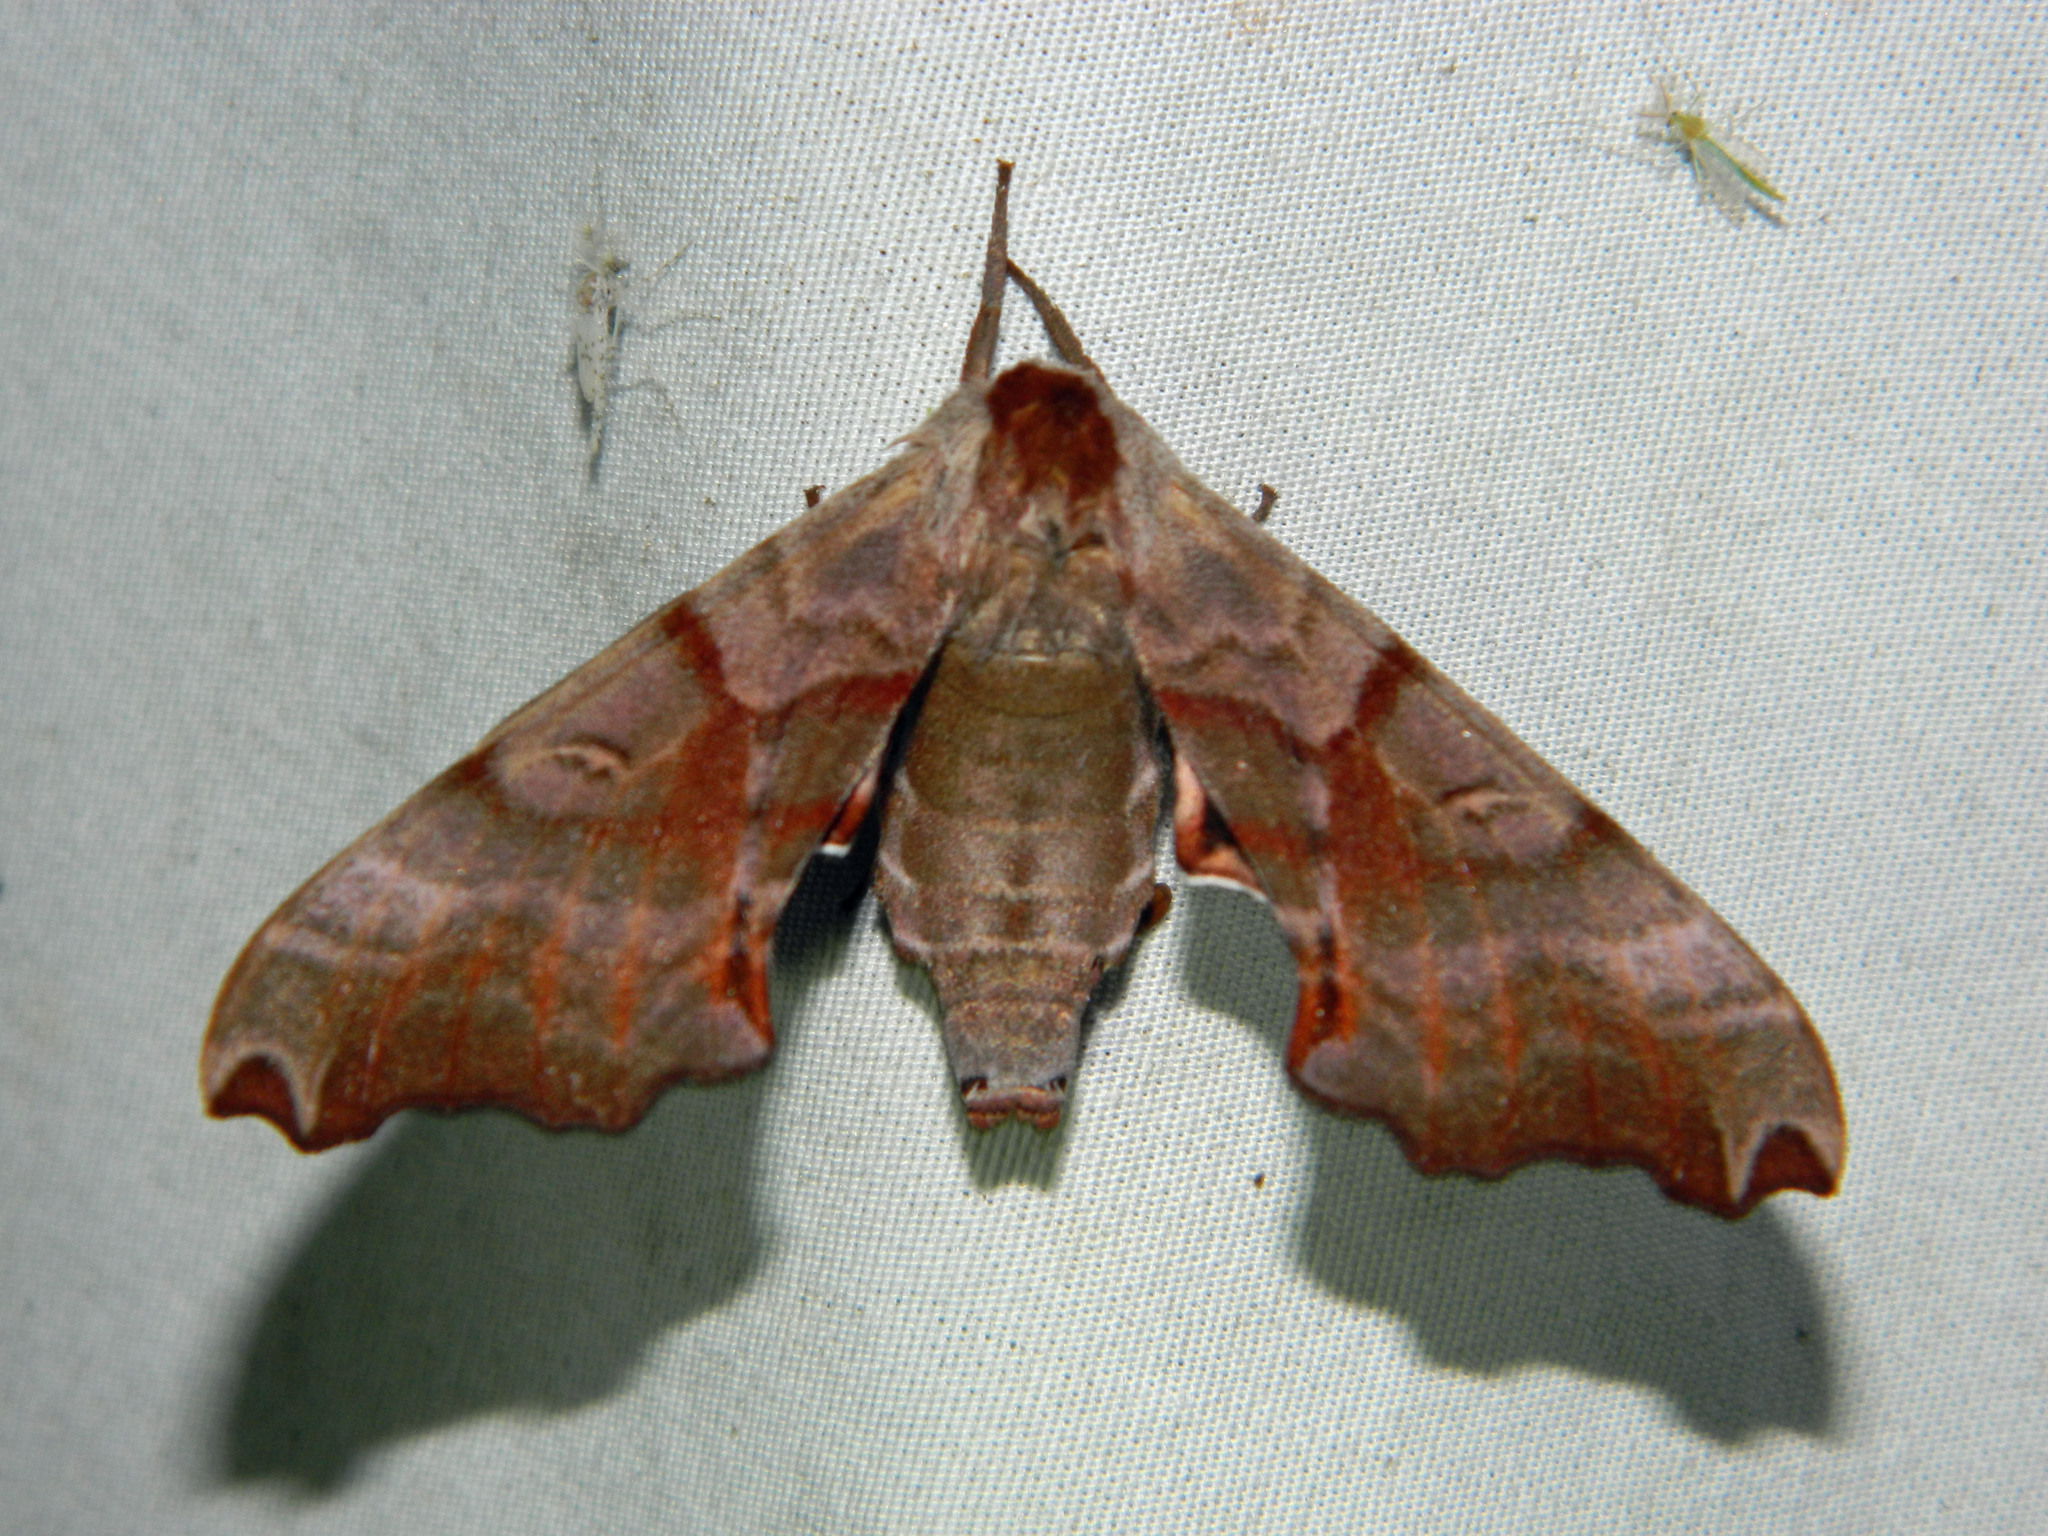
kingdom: Animalia
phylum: Arthropoda
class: Insecta
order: Lepidoptera
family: Sphingidae
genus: Smerinthus
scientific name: Smerinthus jamaicensis
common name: Twin spotted sphinx
